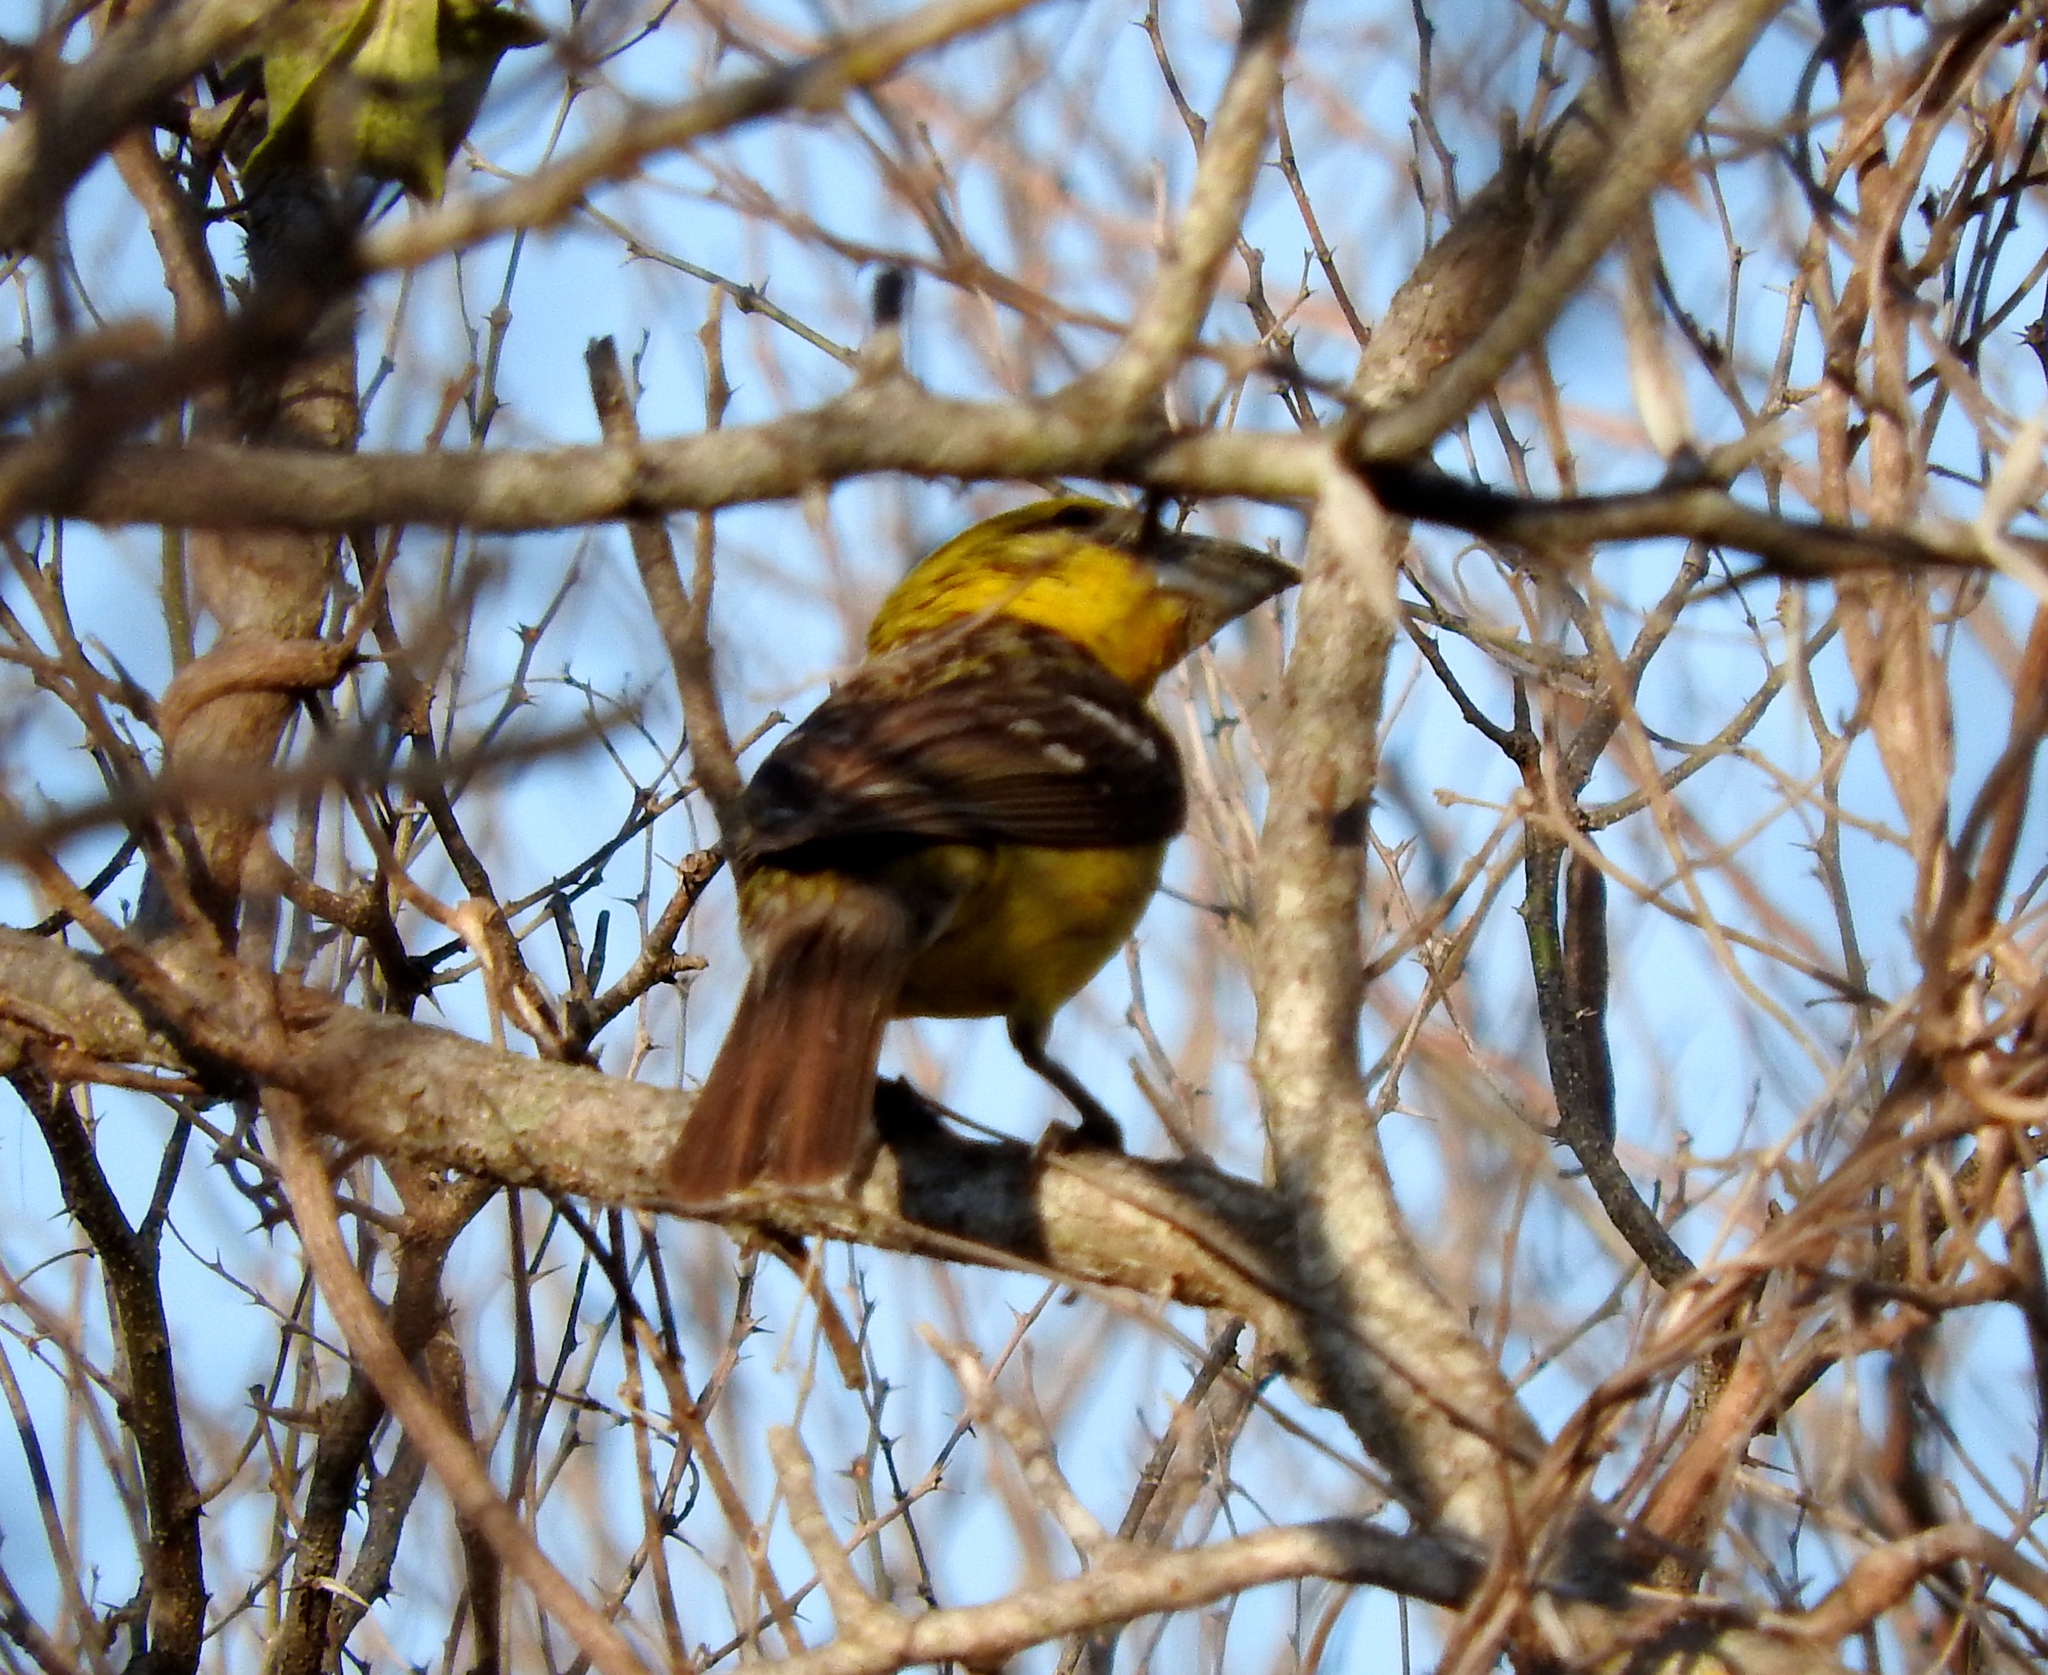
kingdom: Animalia
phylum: Chordata
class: Aves
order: Passeriformes
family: Cardinalidae
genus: Pheucticus
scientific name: Pheucticus chrysopeplus
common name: Yellow grosbeak
